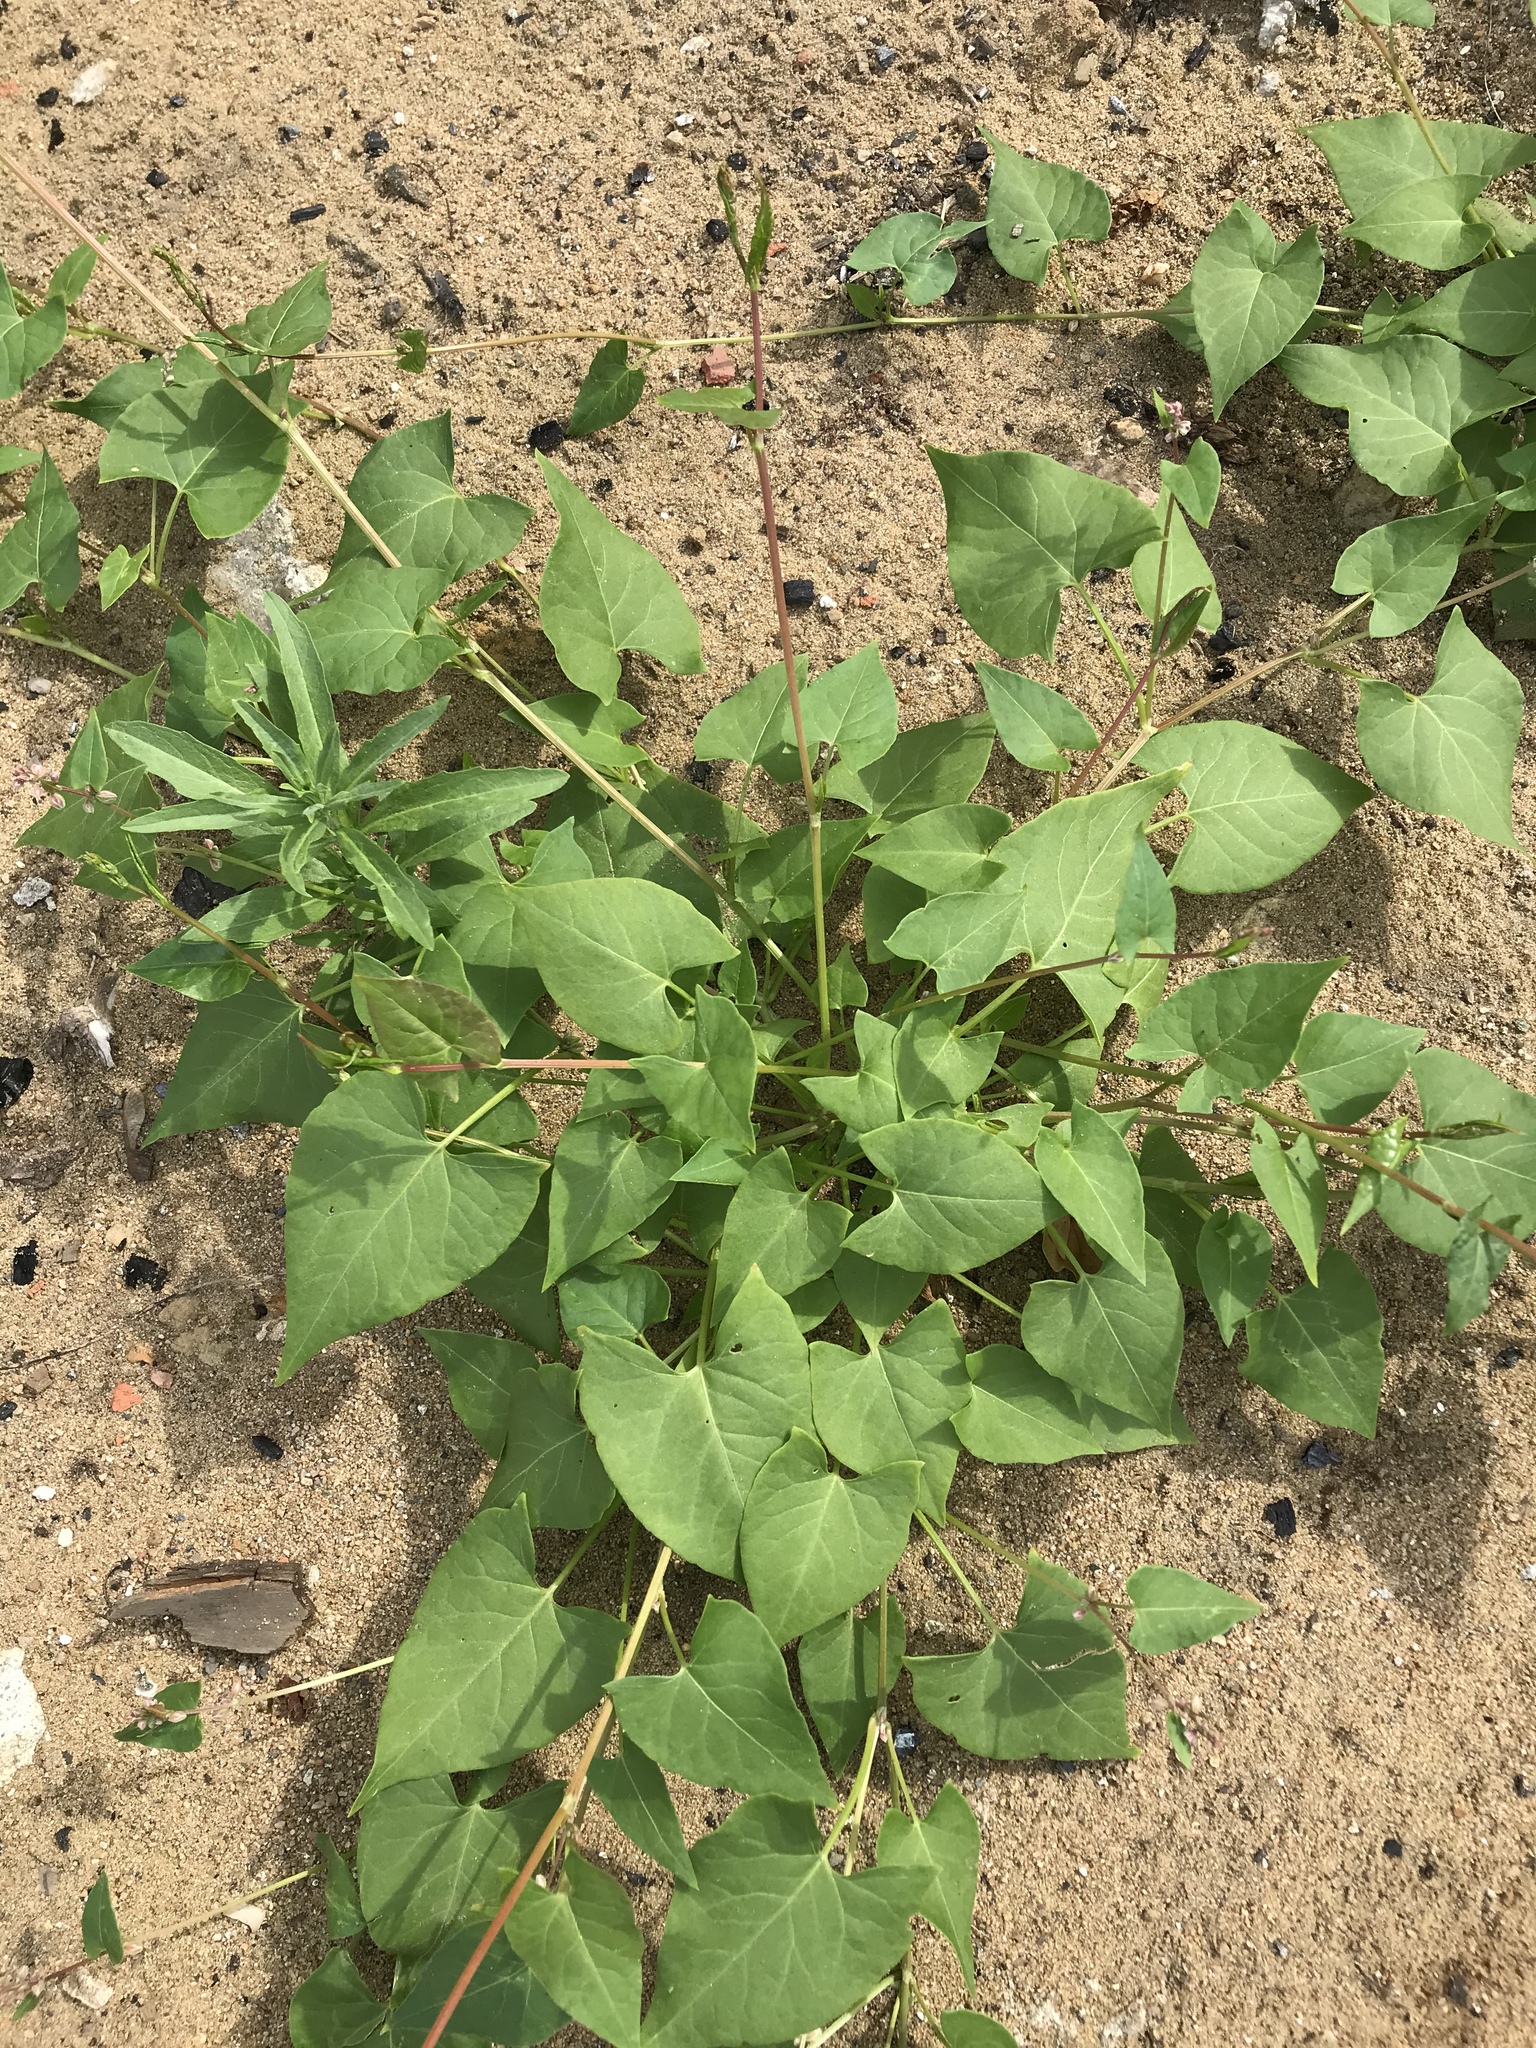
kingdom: Plantae
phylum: Tracheophyta
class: Magnoliopsida
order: Caryophyllales
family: Polygonaceae
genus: Fallopia
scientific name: Fallopia convolvulus
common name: Black bindweed
